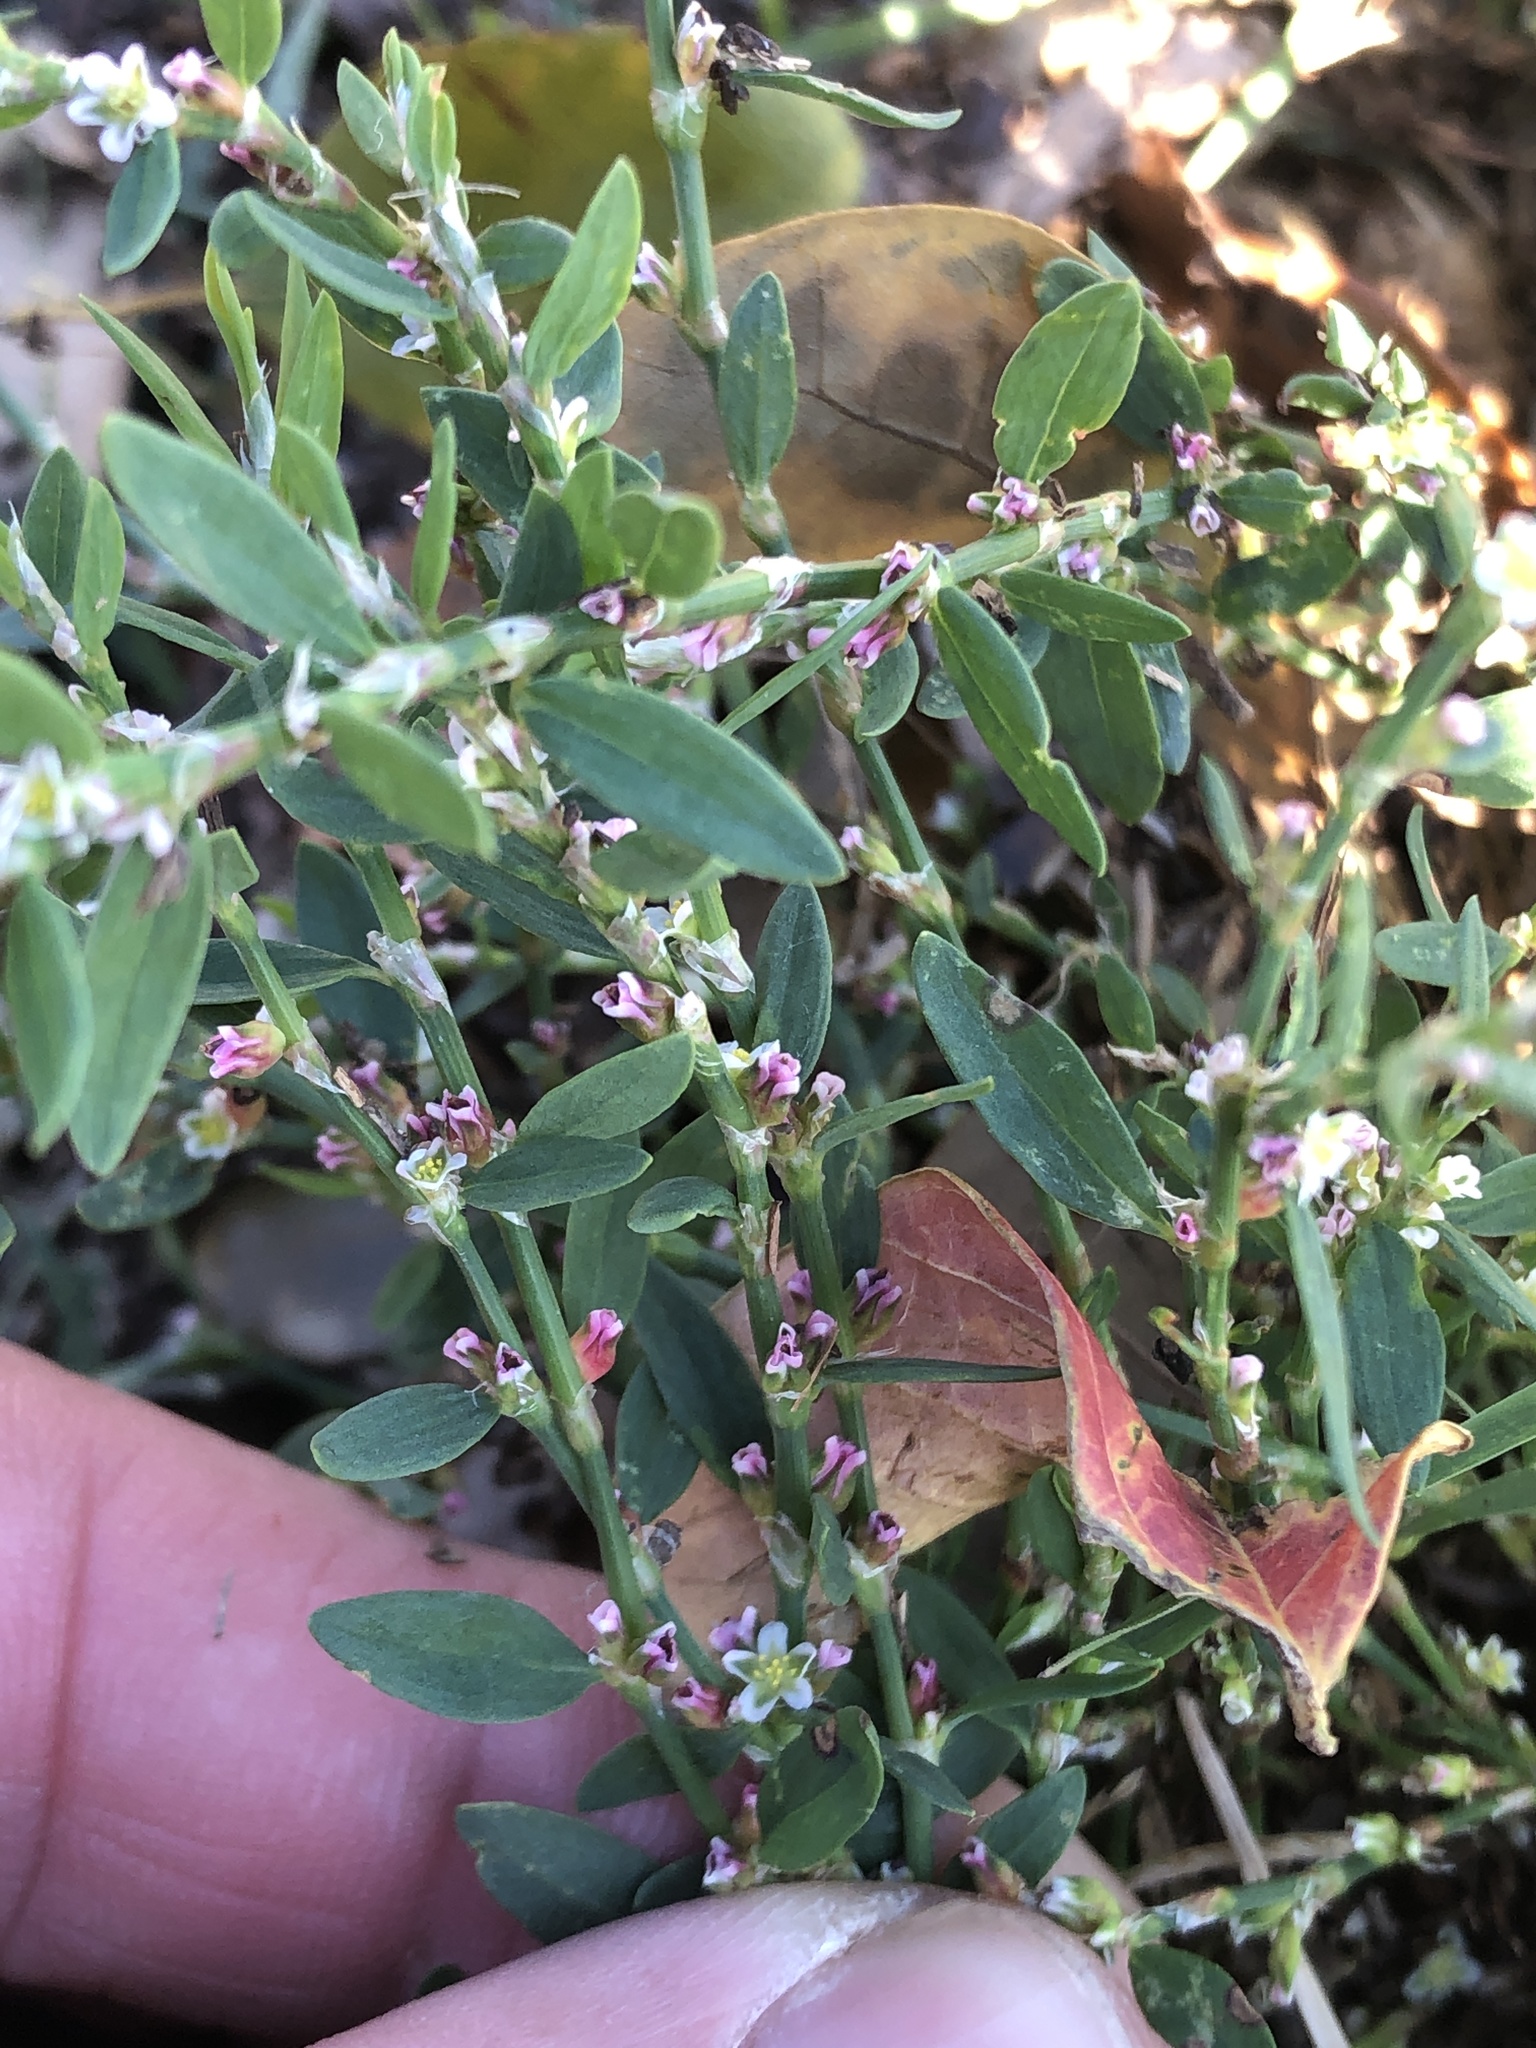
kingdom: Plantae
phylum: Tracheophyta
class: Magnoliopsida
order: Caryophyllales
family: Polygonaceae
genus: Polygonum
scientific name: Polygonum aviculare
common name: Prostrate knotweed
